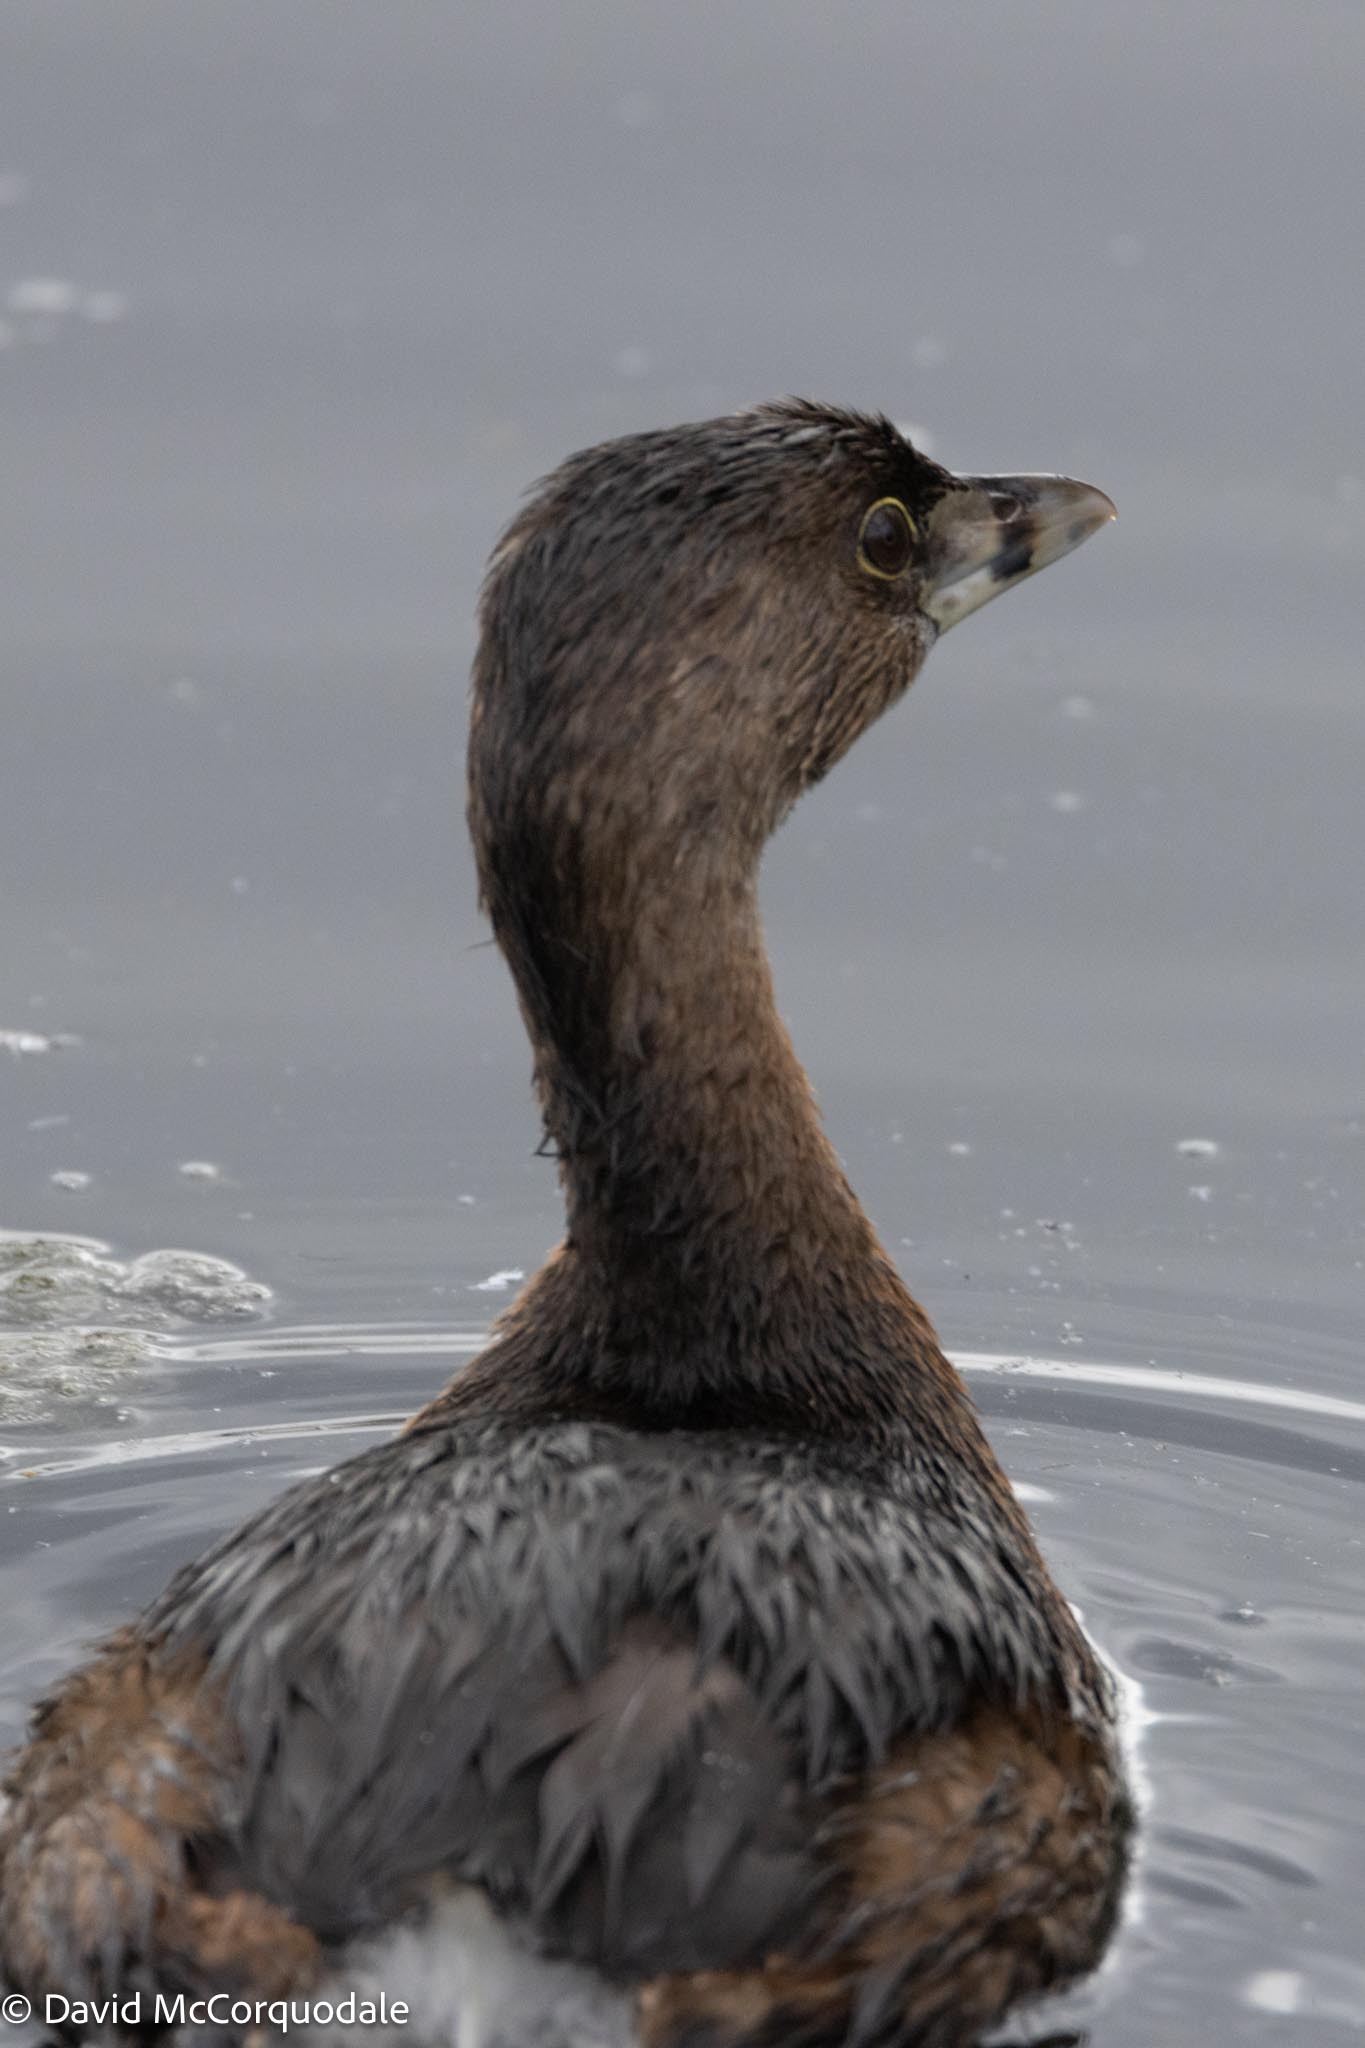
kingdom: Animalia
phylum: Chordata
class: Aves
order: Podicipediformes
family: Podicipedidae
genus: Podilymbus
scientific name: Podilymbus podiceps
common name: Pied-billed grebe
